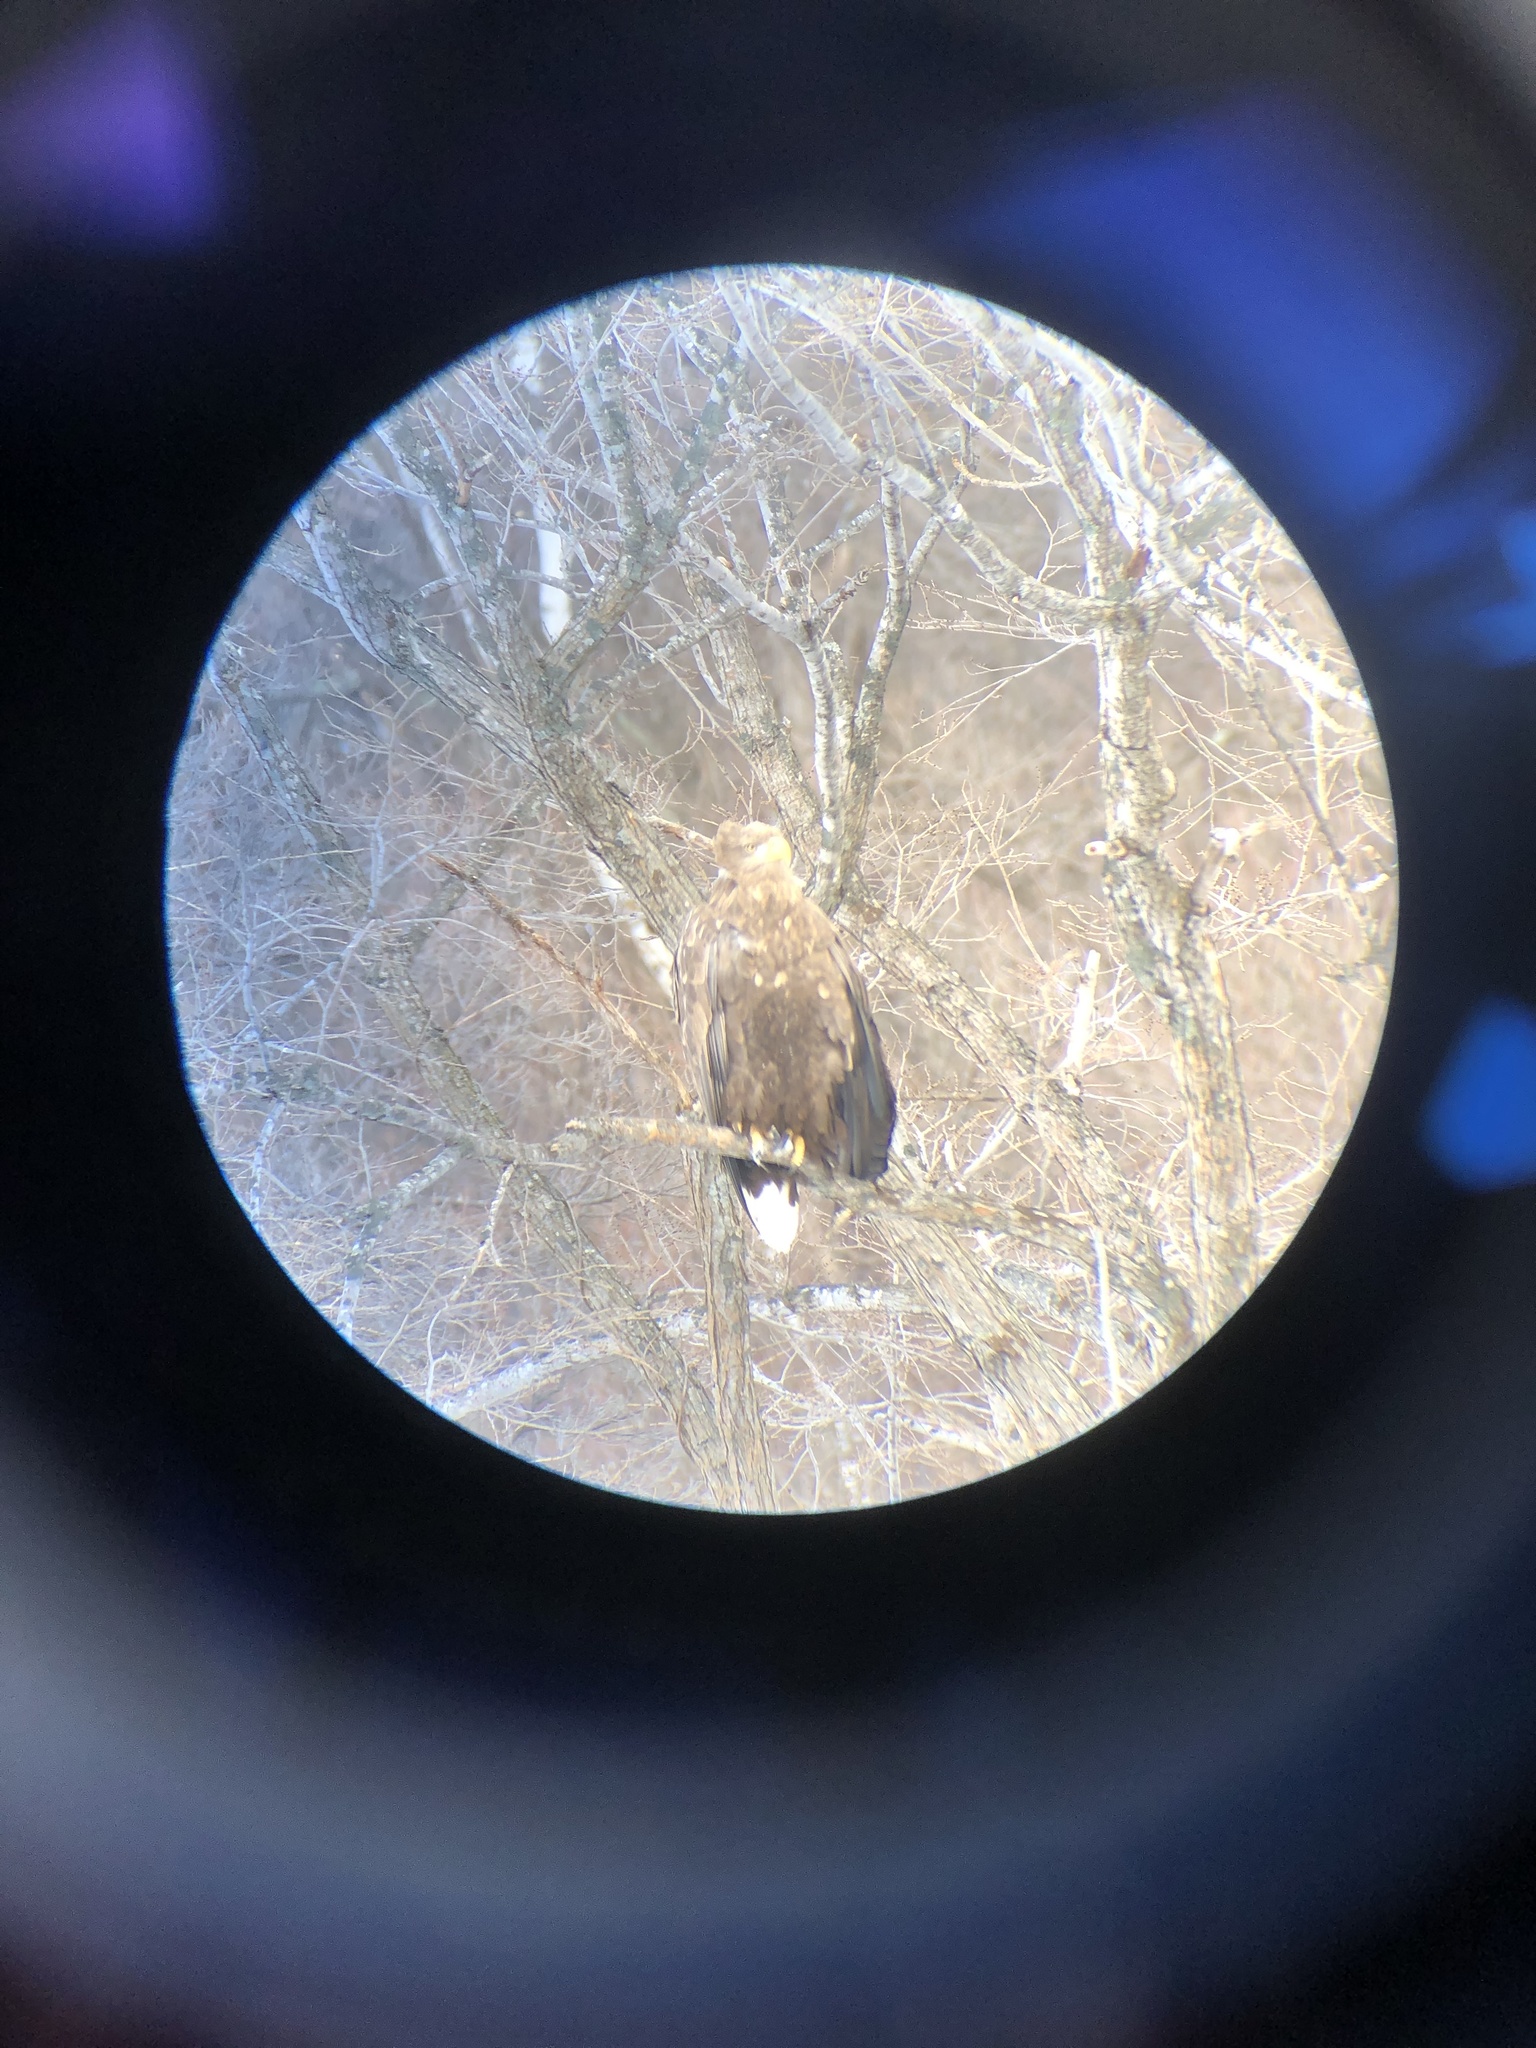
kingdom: Animalia
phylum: Chordata
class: Aves
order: Accipitriformes
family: Accipitridae
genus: Haliaeetus
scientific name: Haliaeetus albicilla
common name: White-tailed eagle
